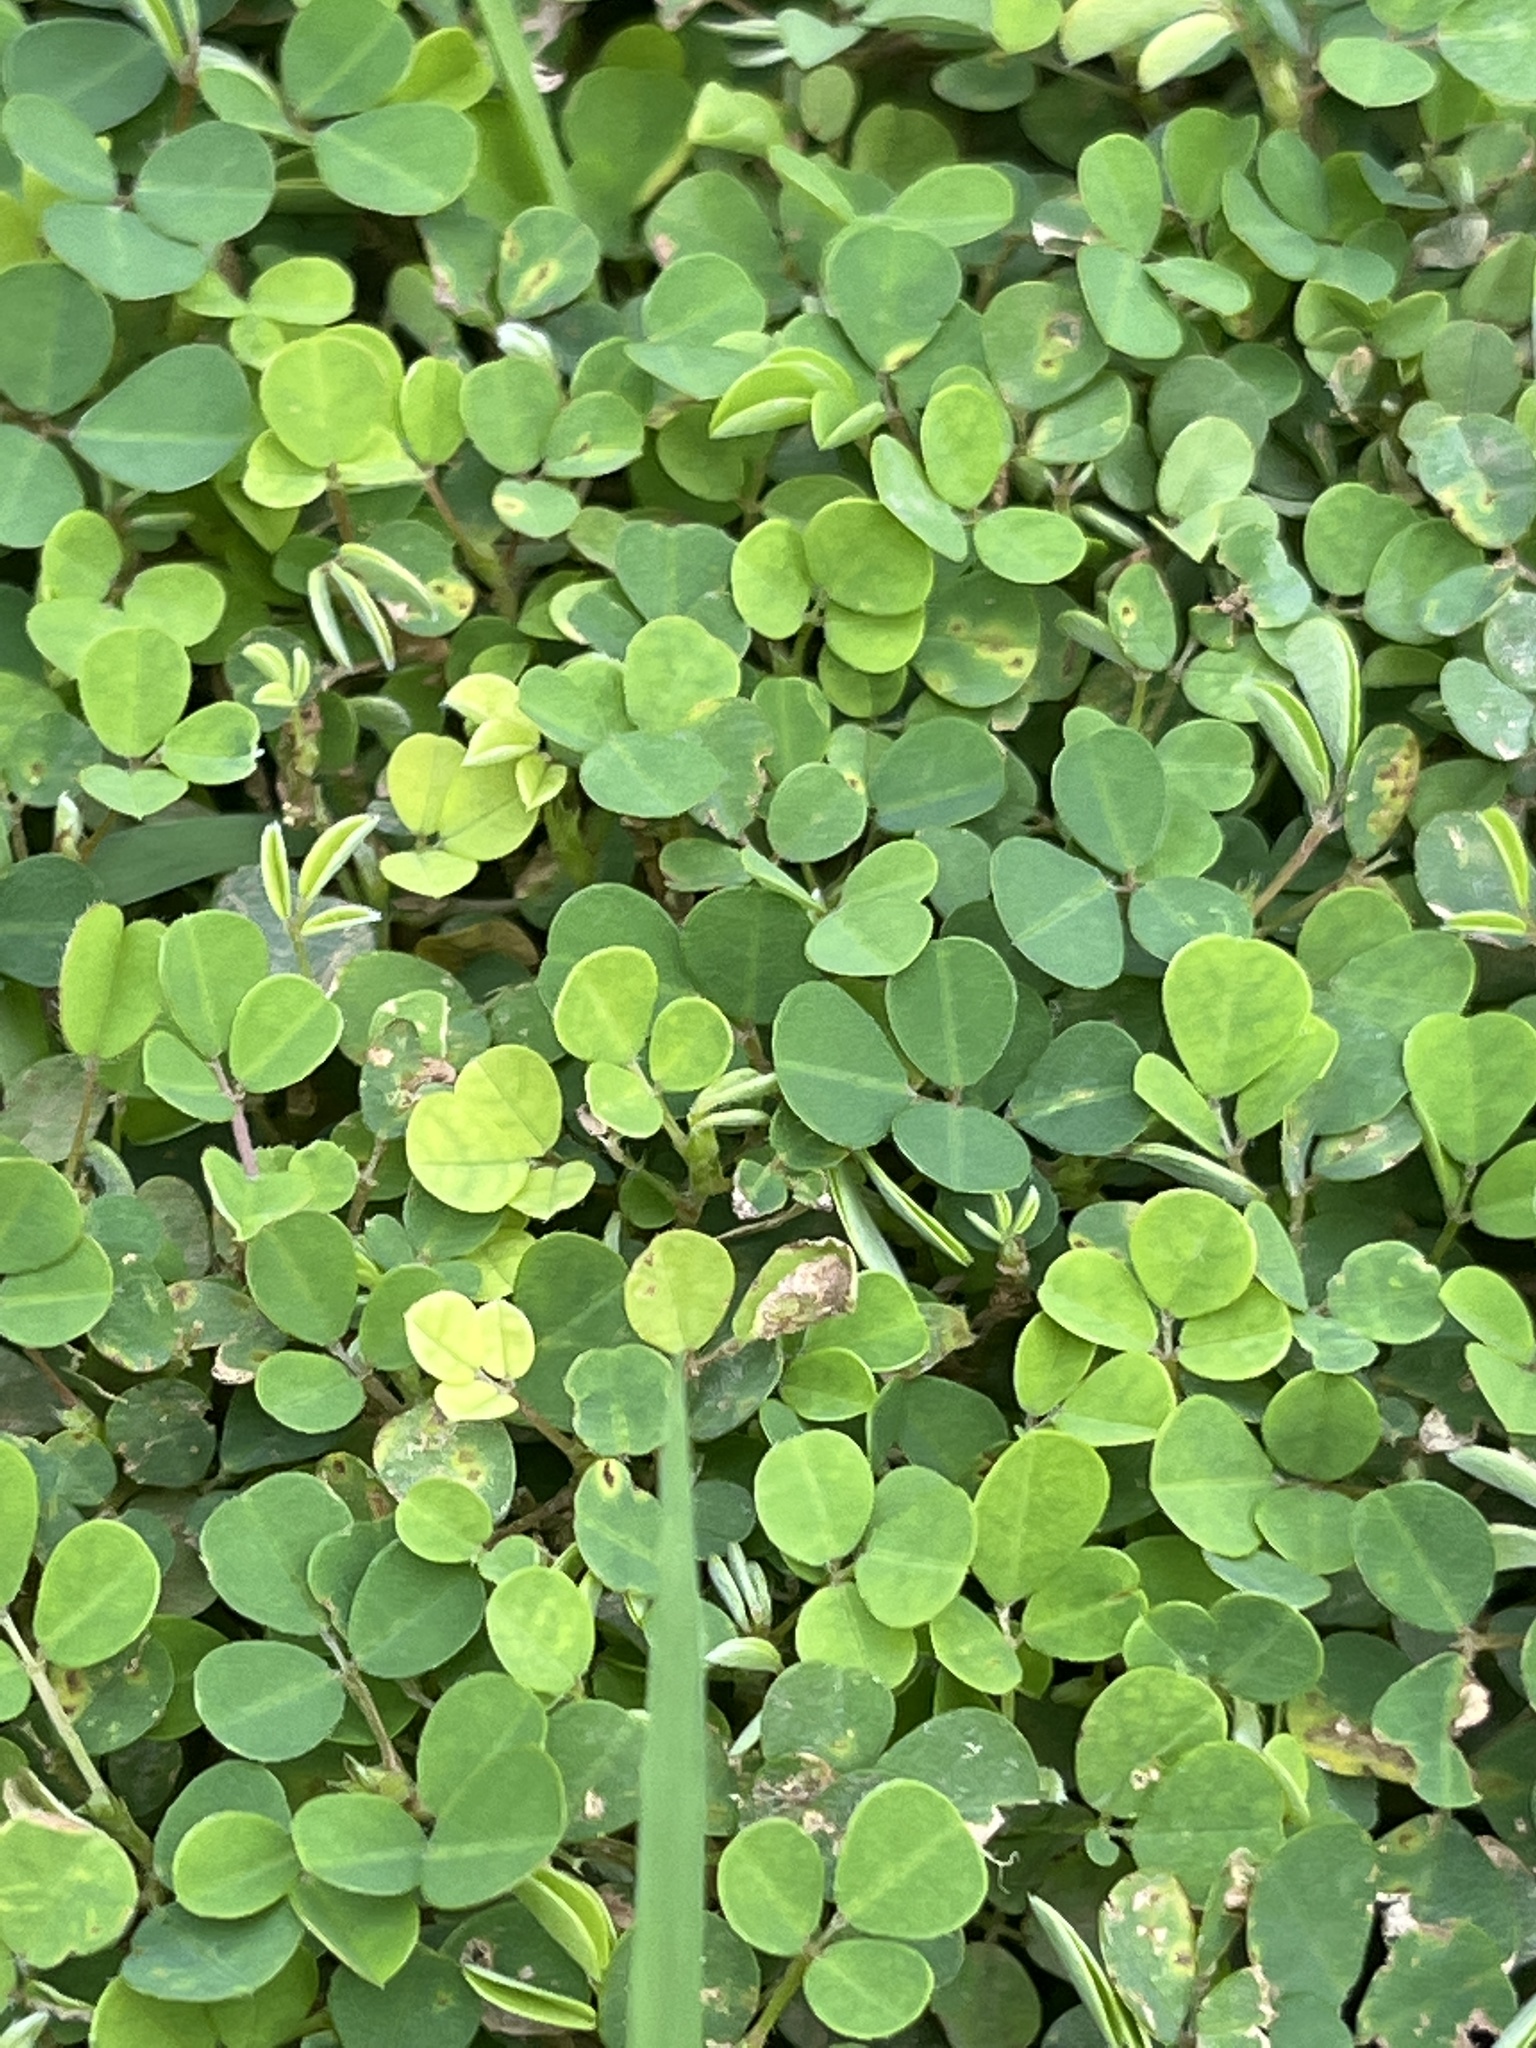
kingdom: Plantae
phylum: Tracheophyta
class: Magnoliopsida
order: Fabales
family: Fabaceae
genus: Grona
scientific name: Grona triflora
